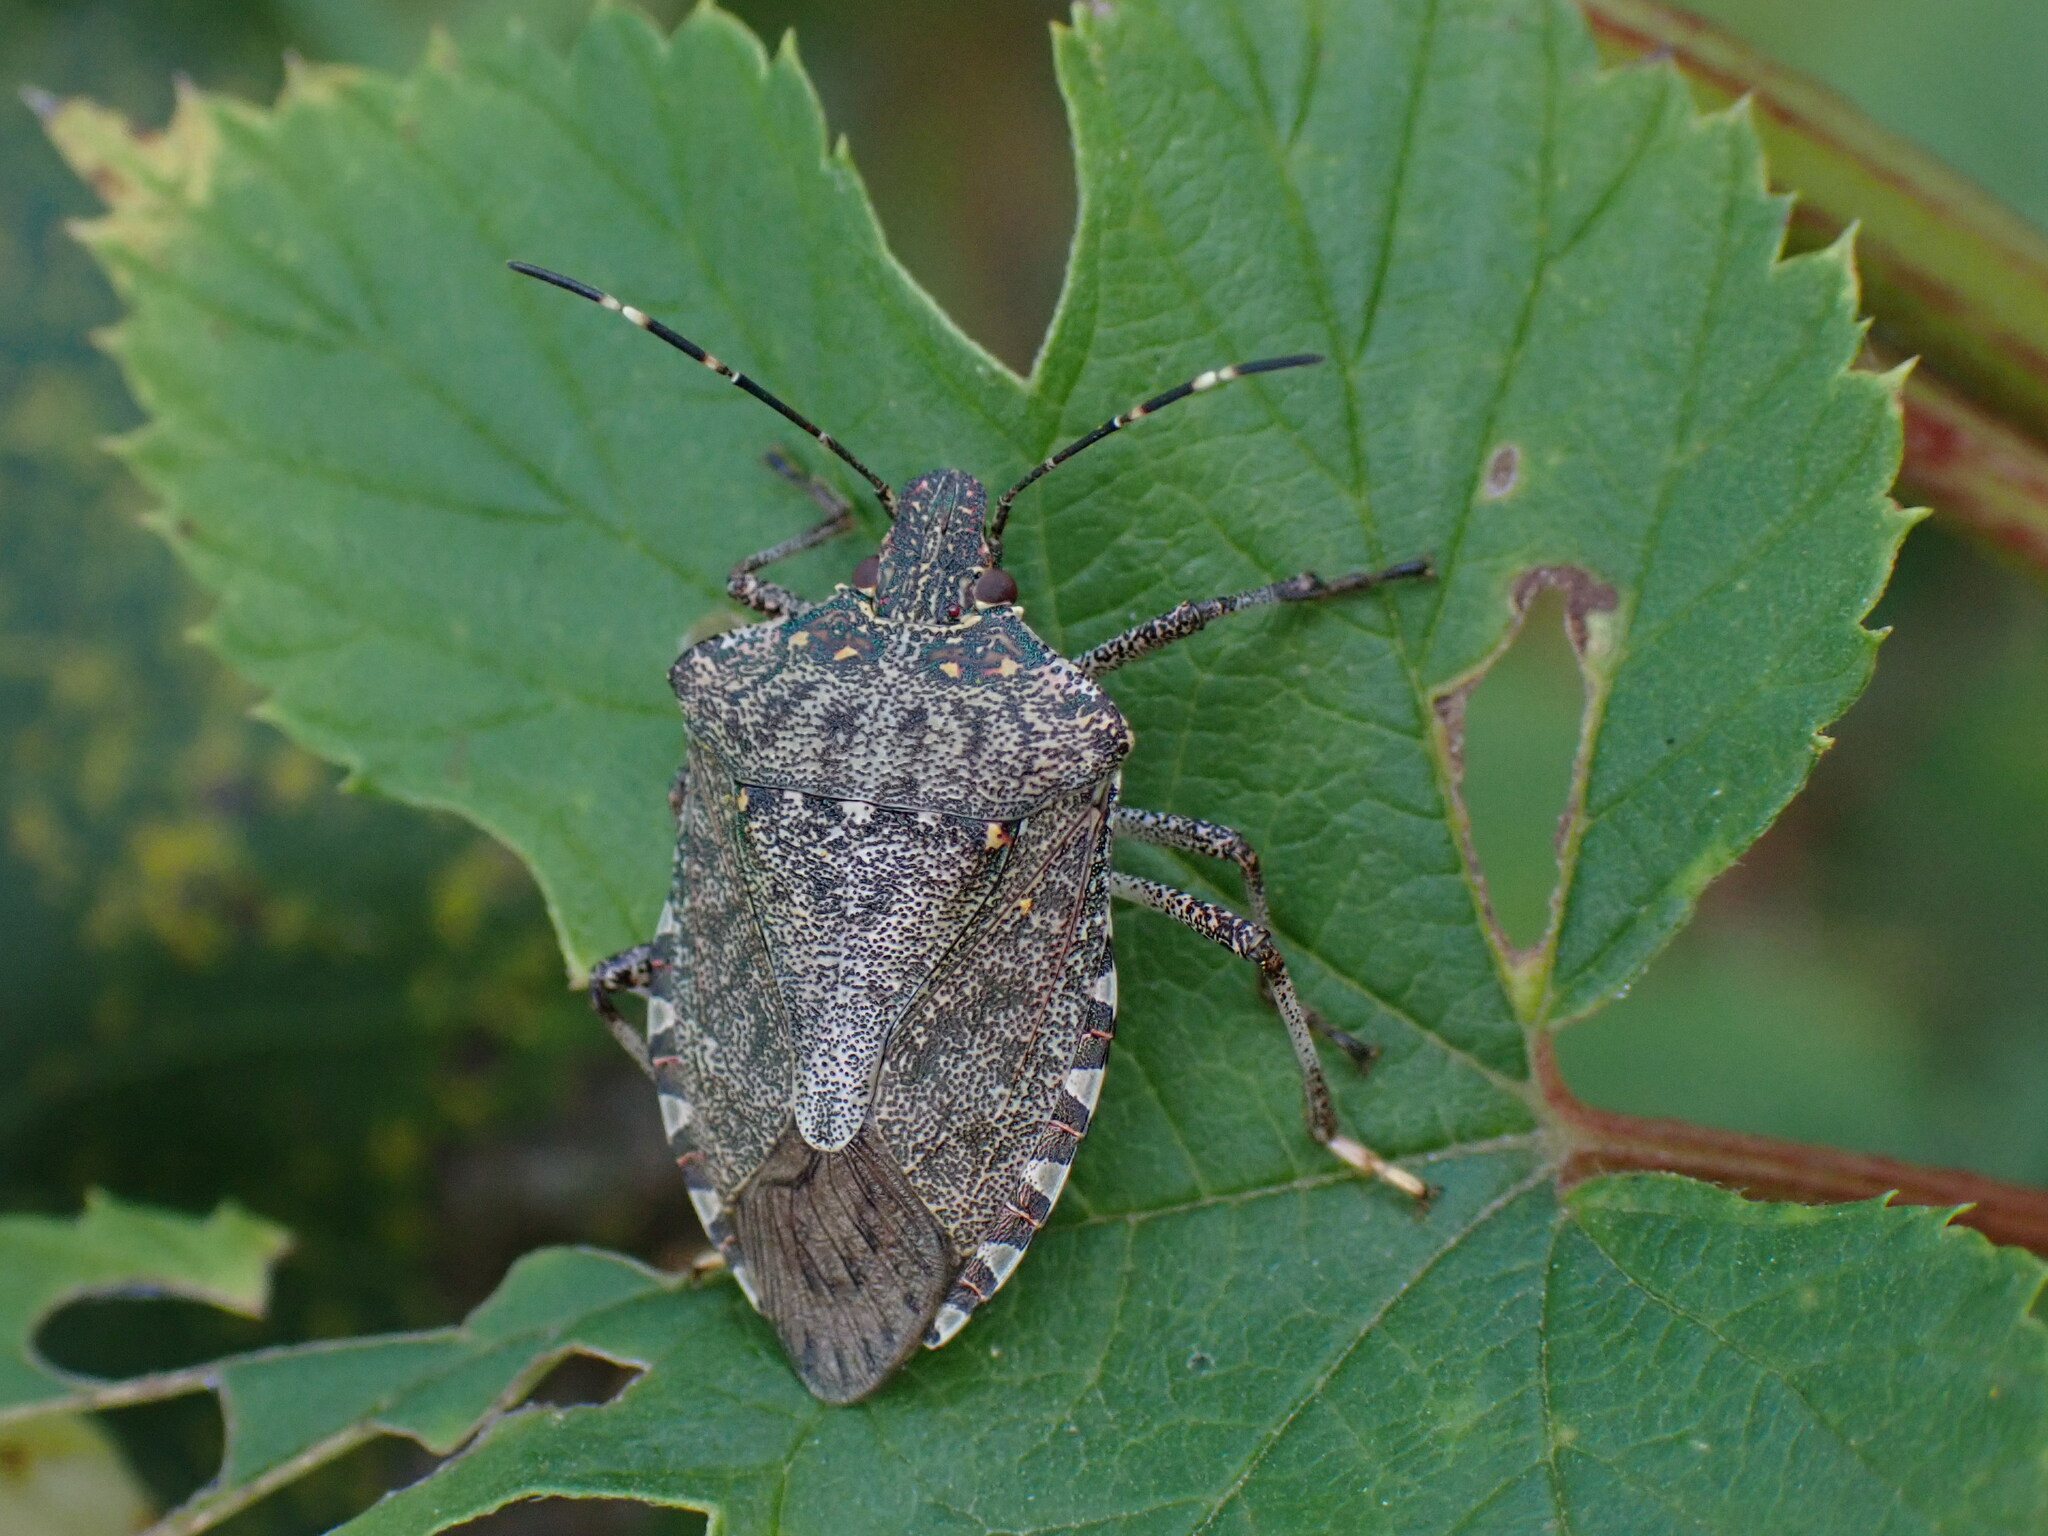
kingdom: Animalia
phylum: Arthropoda
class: Insecta
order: Hemiptera
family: Pentatomidae
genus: Halyomorpha
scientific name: Halyomorpha halys
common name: Brown marmorated stink bug
